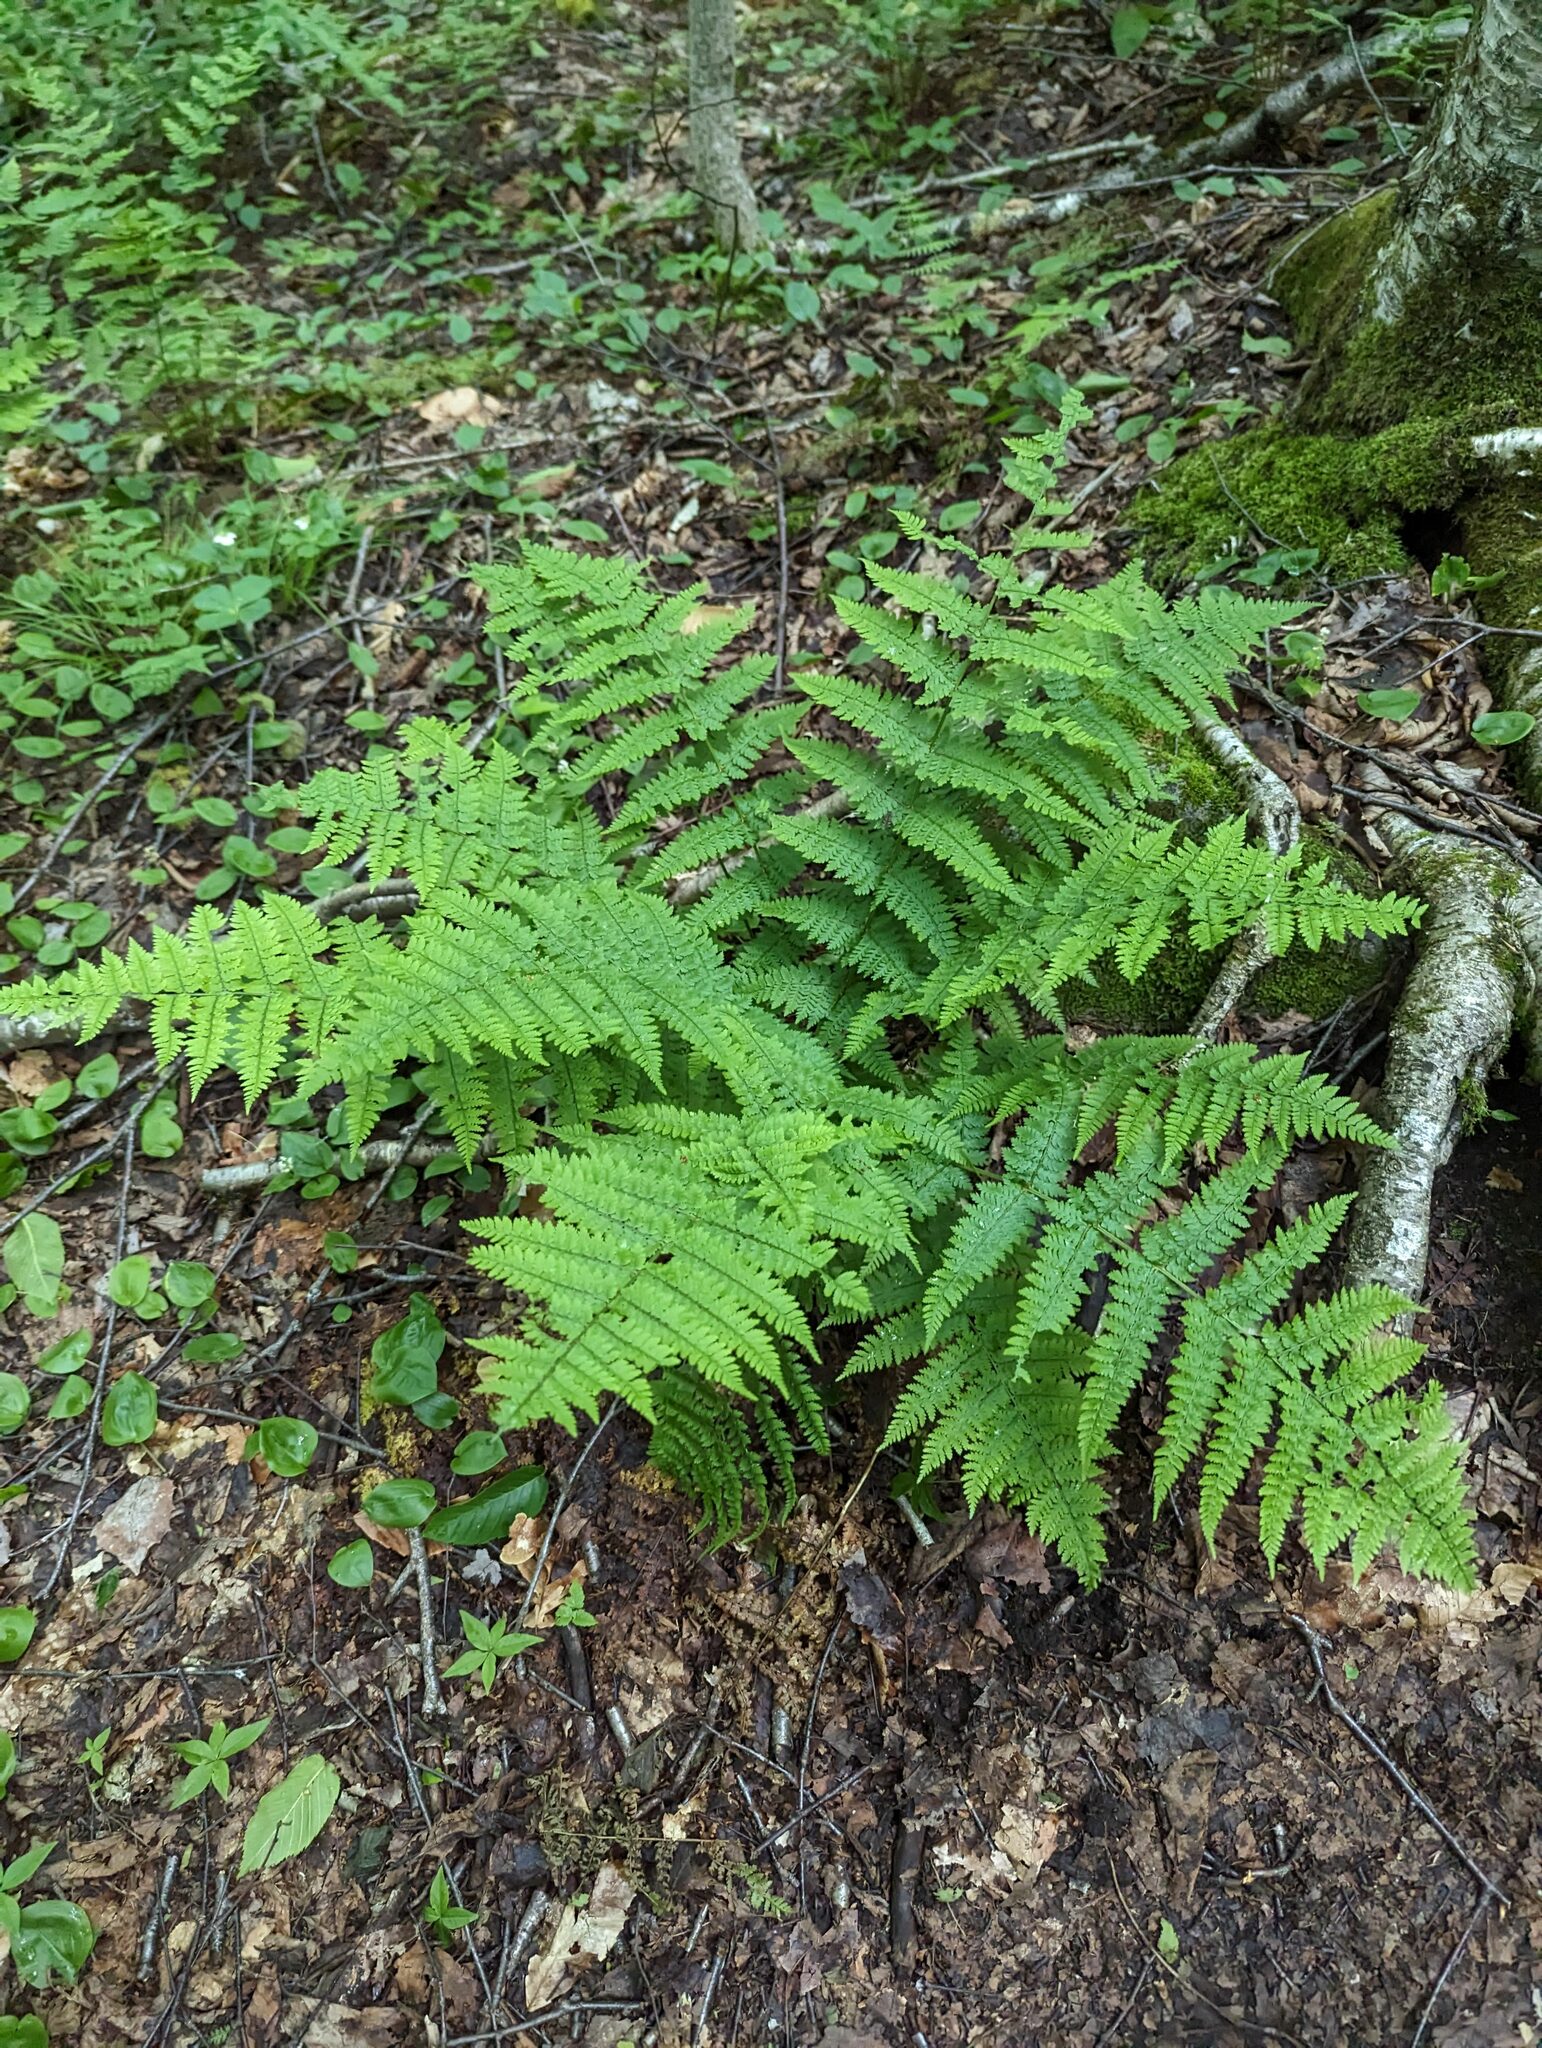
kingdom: Plantae
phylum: Tracheophyta
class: Polypodiopsida
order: Polypodiales
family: Dryopteridaceae
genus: Dryopteris
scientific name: Dryopteris intermedia
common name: Evergreen wood fern
